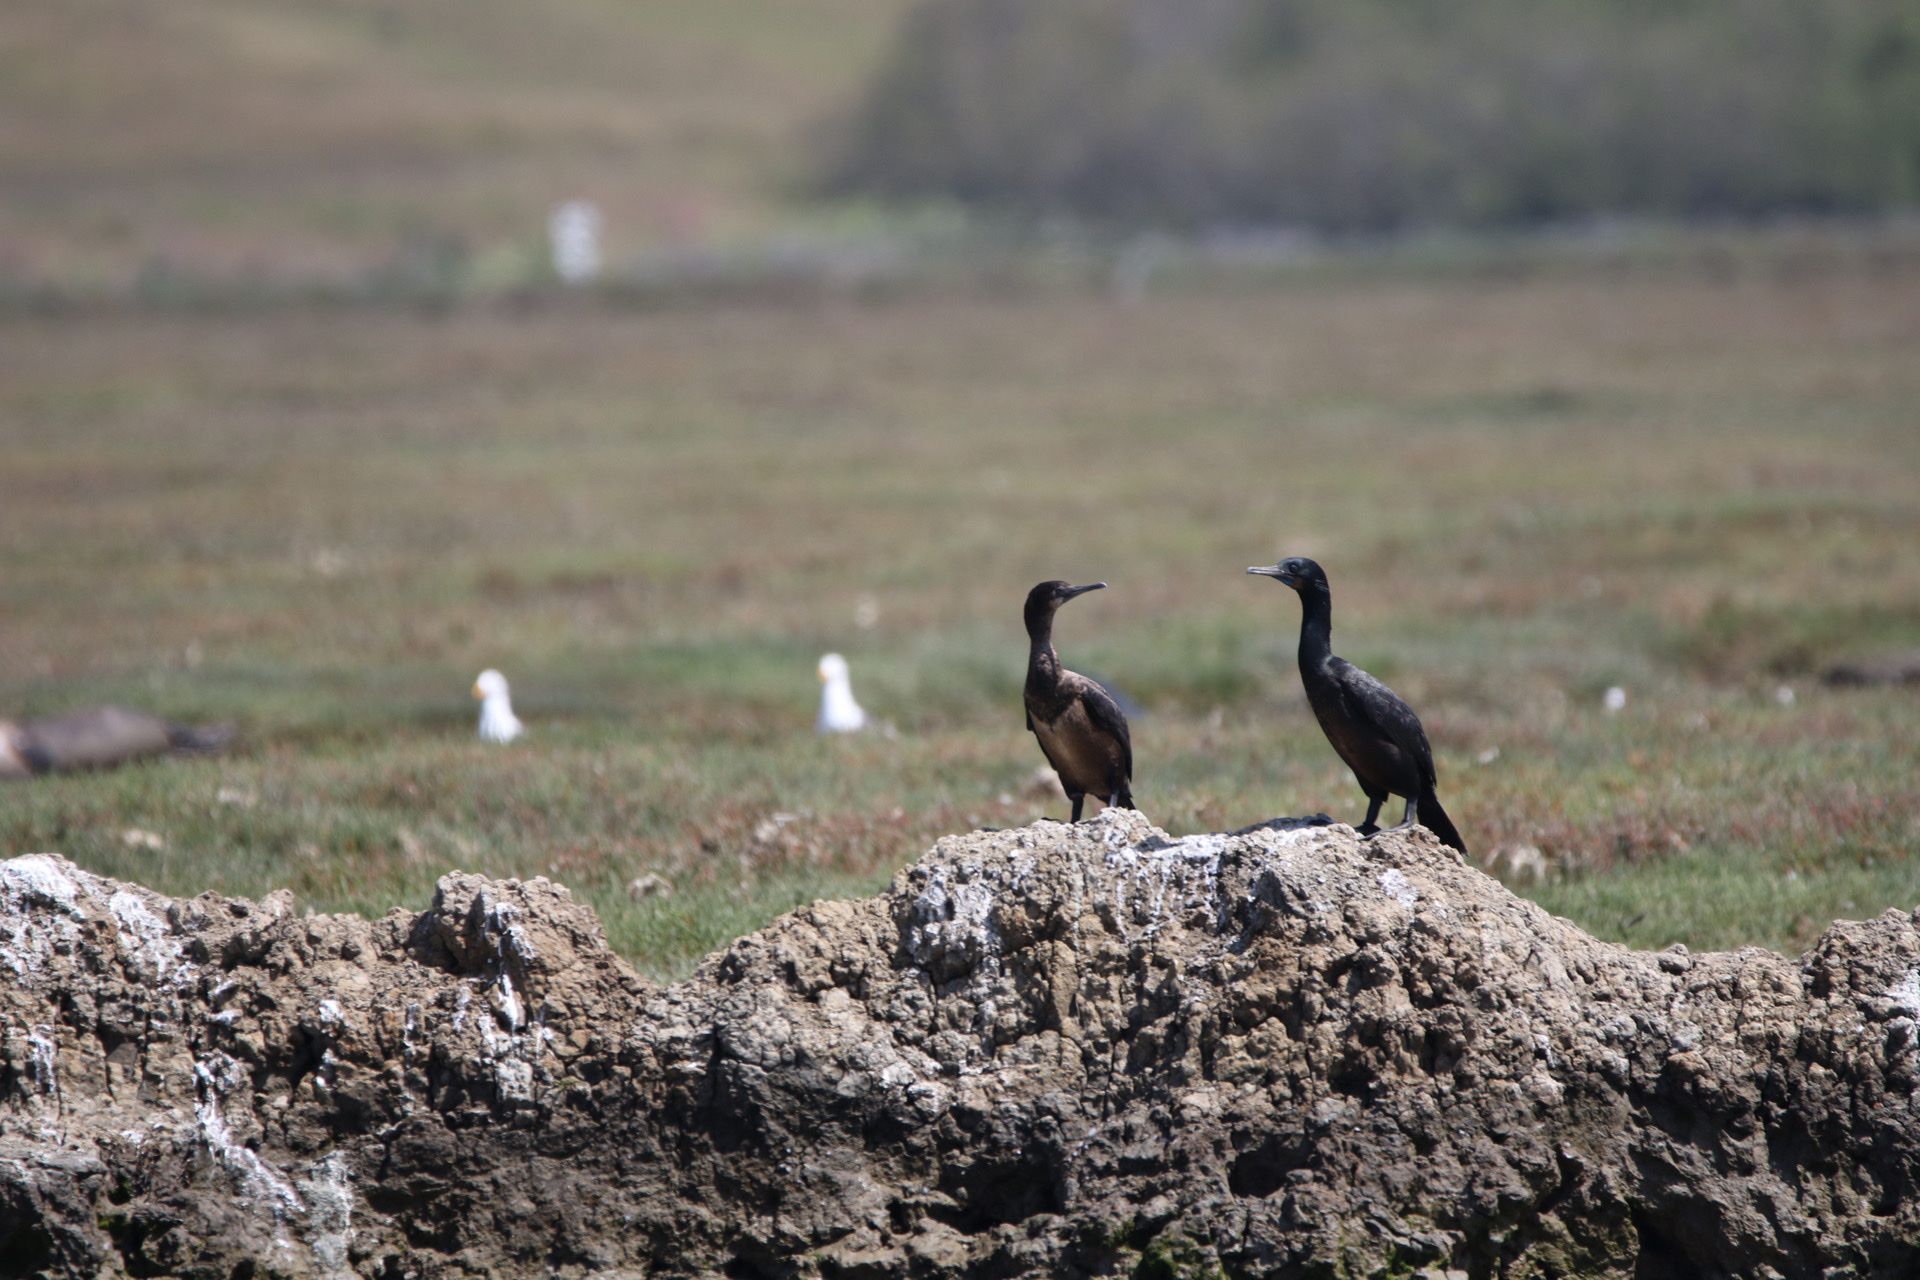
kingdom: Animalia
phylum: Chordata
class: Aves
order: Suliformes
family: Phalacrocoracidae
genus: Urile
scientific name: Urile penicillatus
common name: Brandt's cormorant
